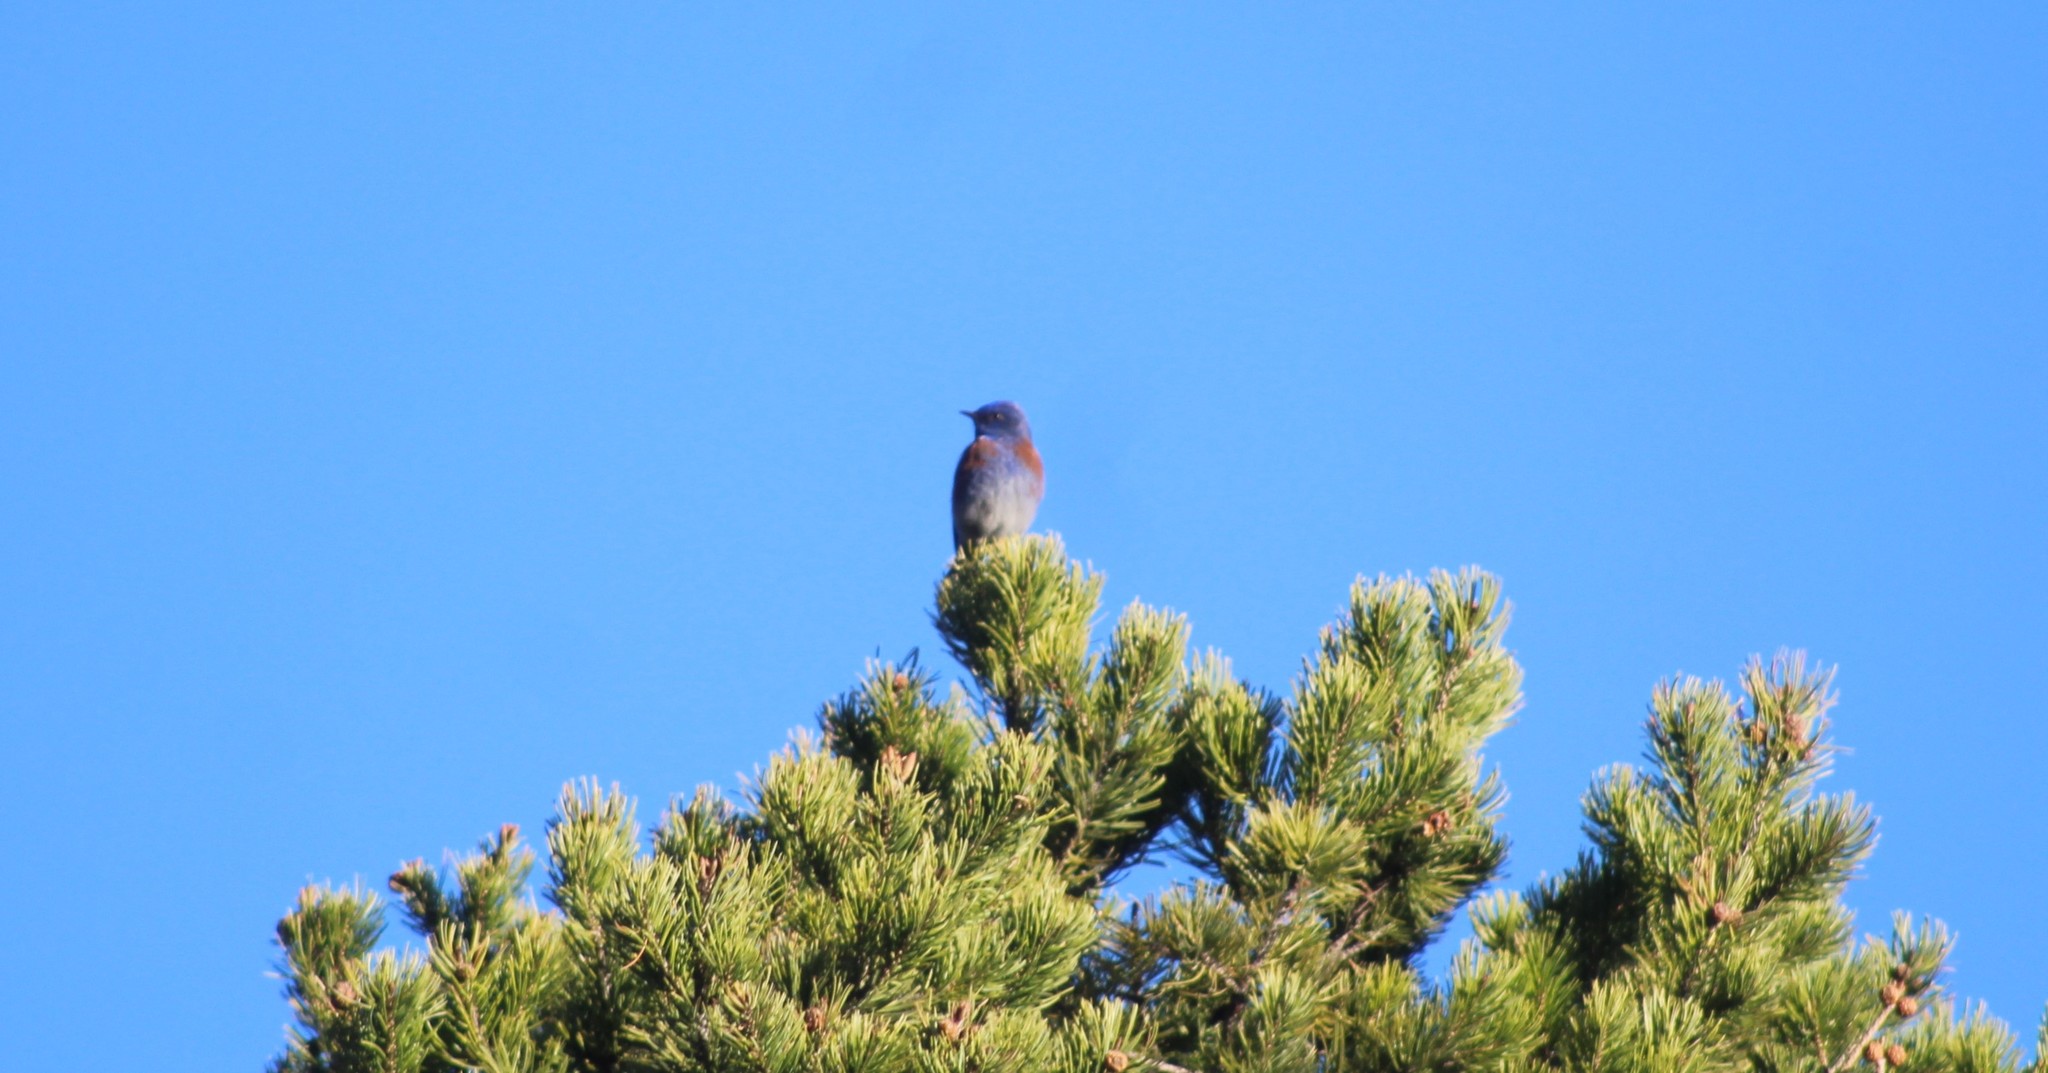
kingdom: Animalia
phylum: Chordata
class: Aves
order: Passeriformes
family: Turdidae
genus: Sialia
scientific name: Sialia mexicana
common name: Western bluebird
